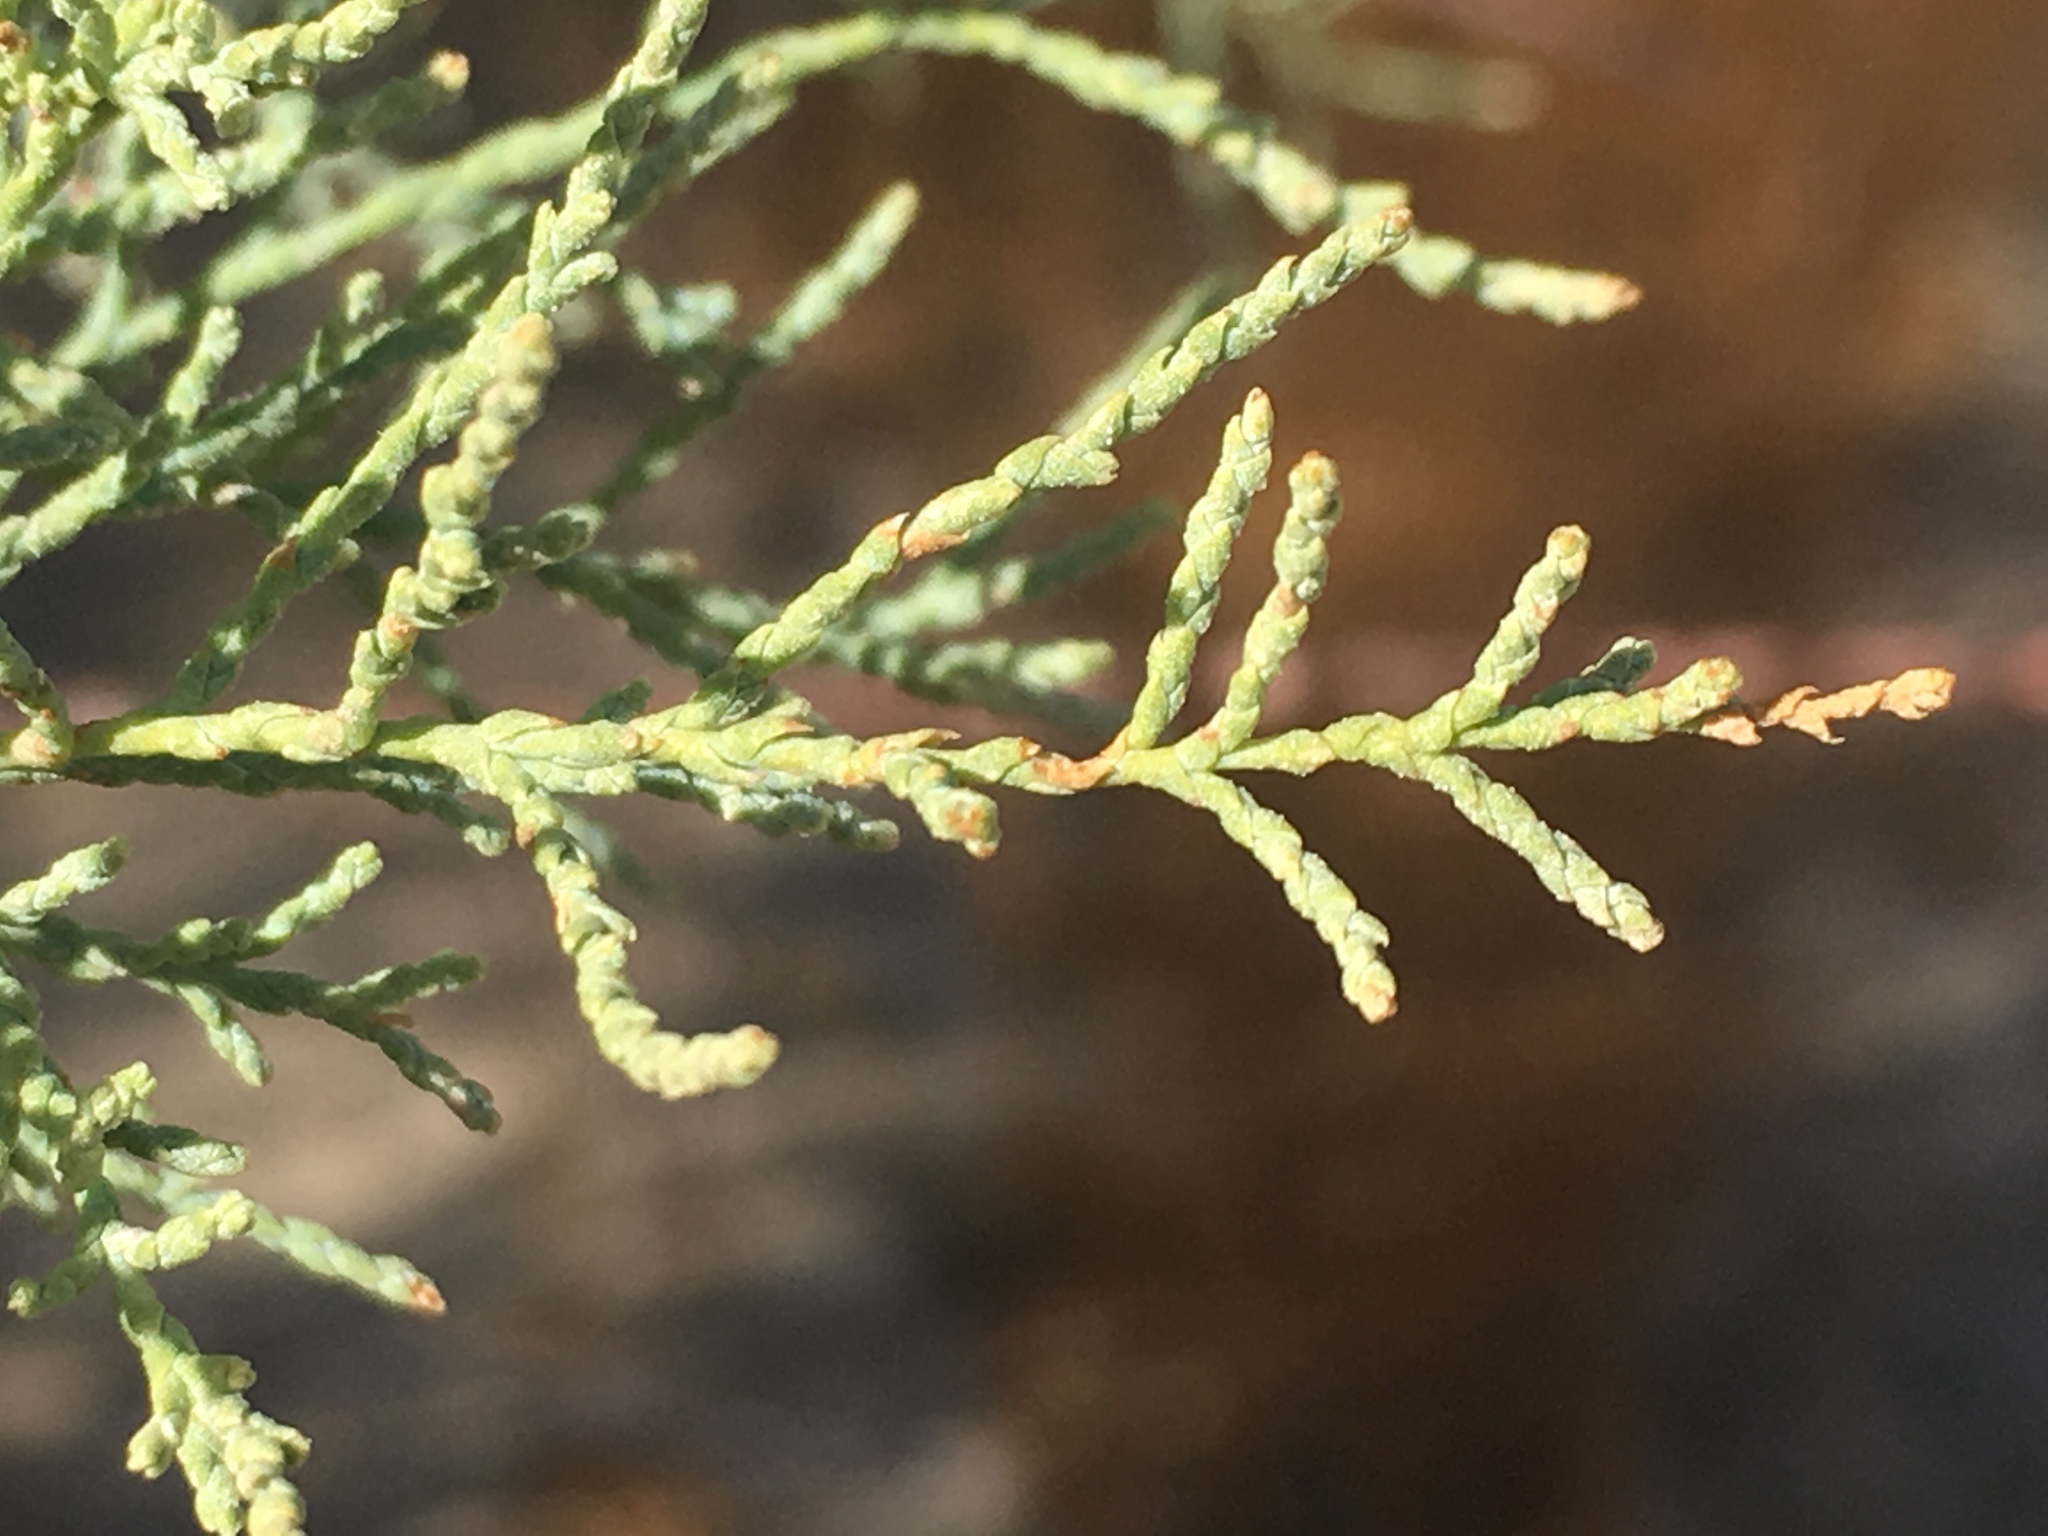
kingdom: Plantae
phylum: Tracheophyta
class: Magnoliopsida
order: Caryophyllales
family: Tamaricaceae
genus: Tamarix
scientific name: Tamarix
